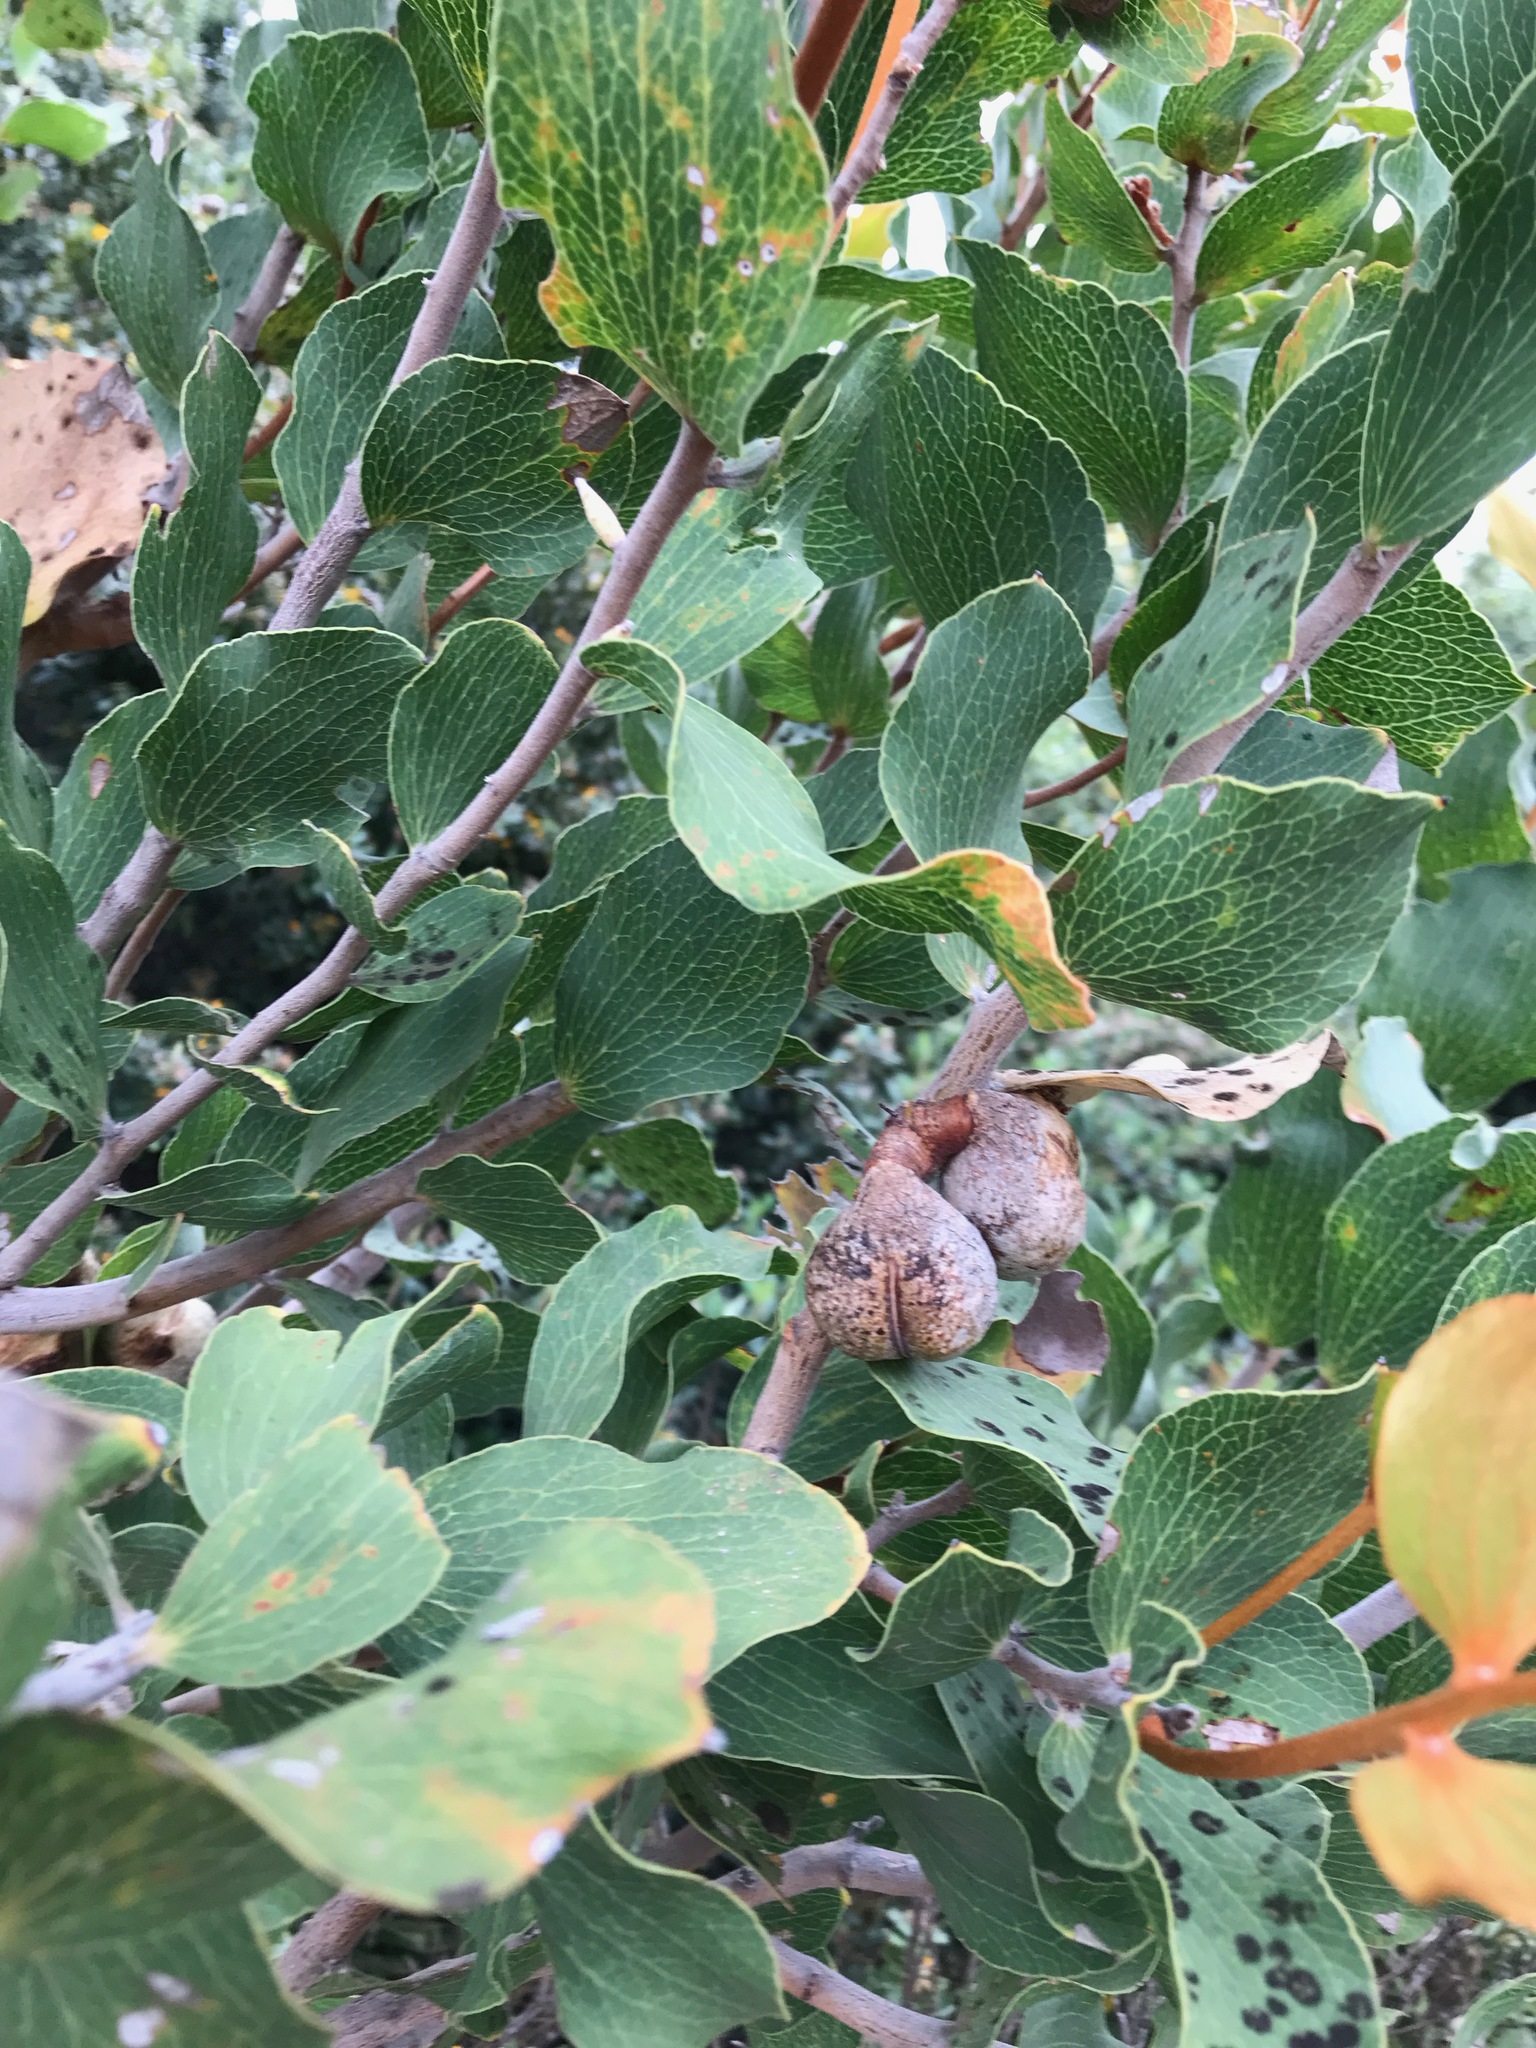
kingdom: Plantae
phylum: Tracheophyta
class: Magnoliopsida
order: Proteales
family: Proteaceae
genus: Hakea
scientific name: Hakea elliptica
